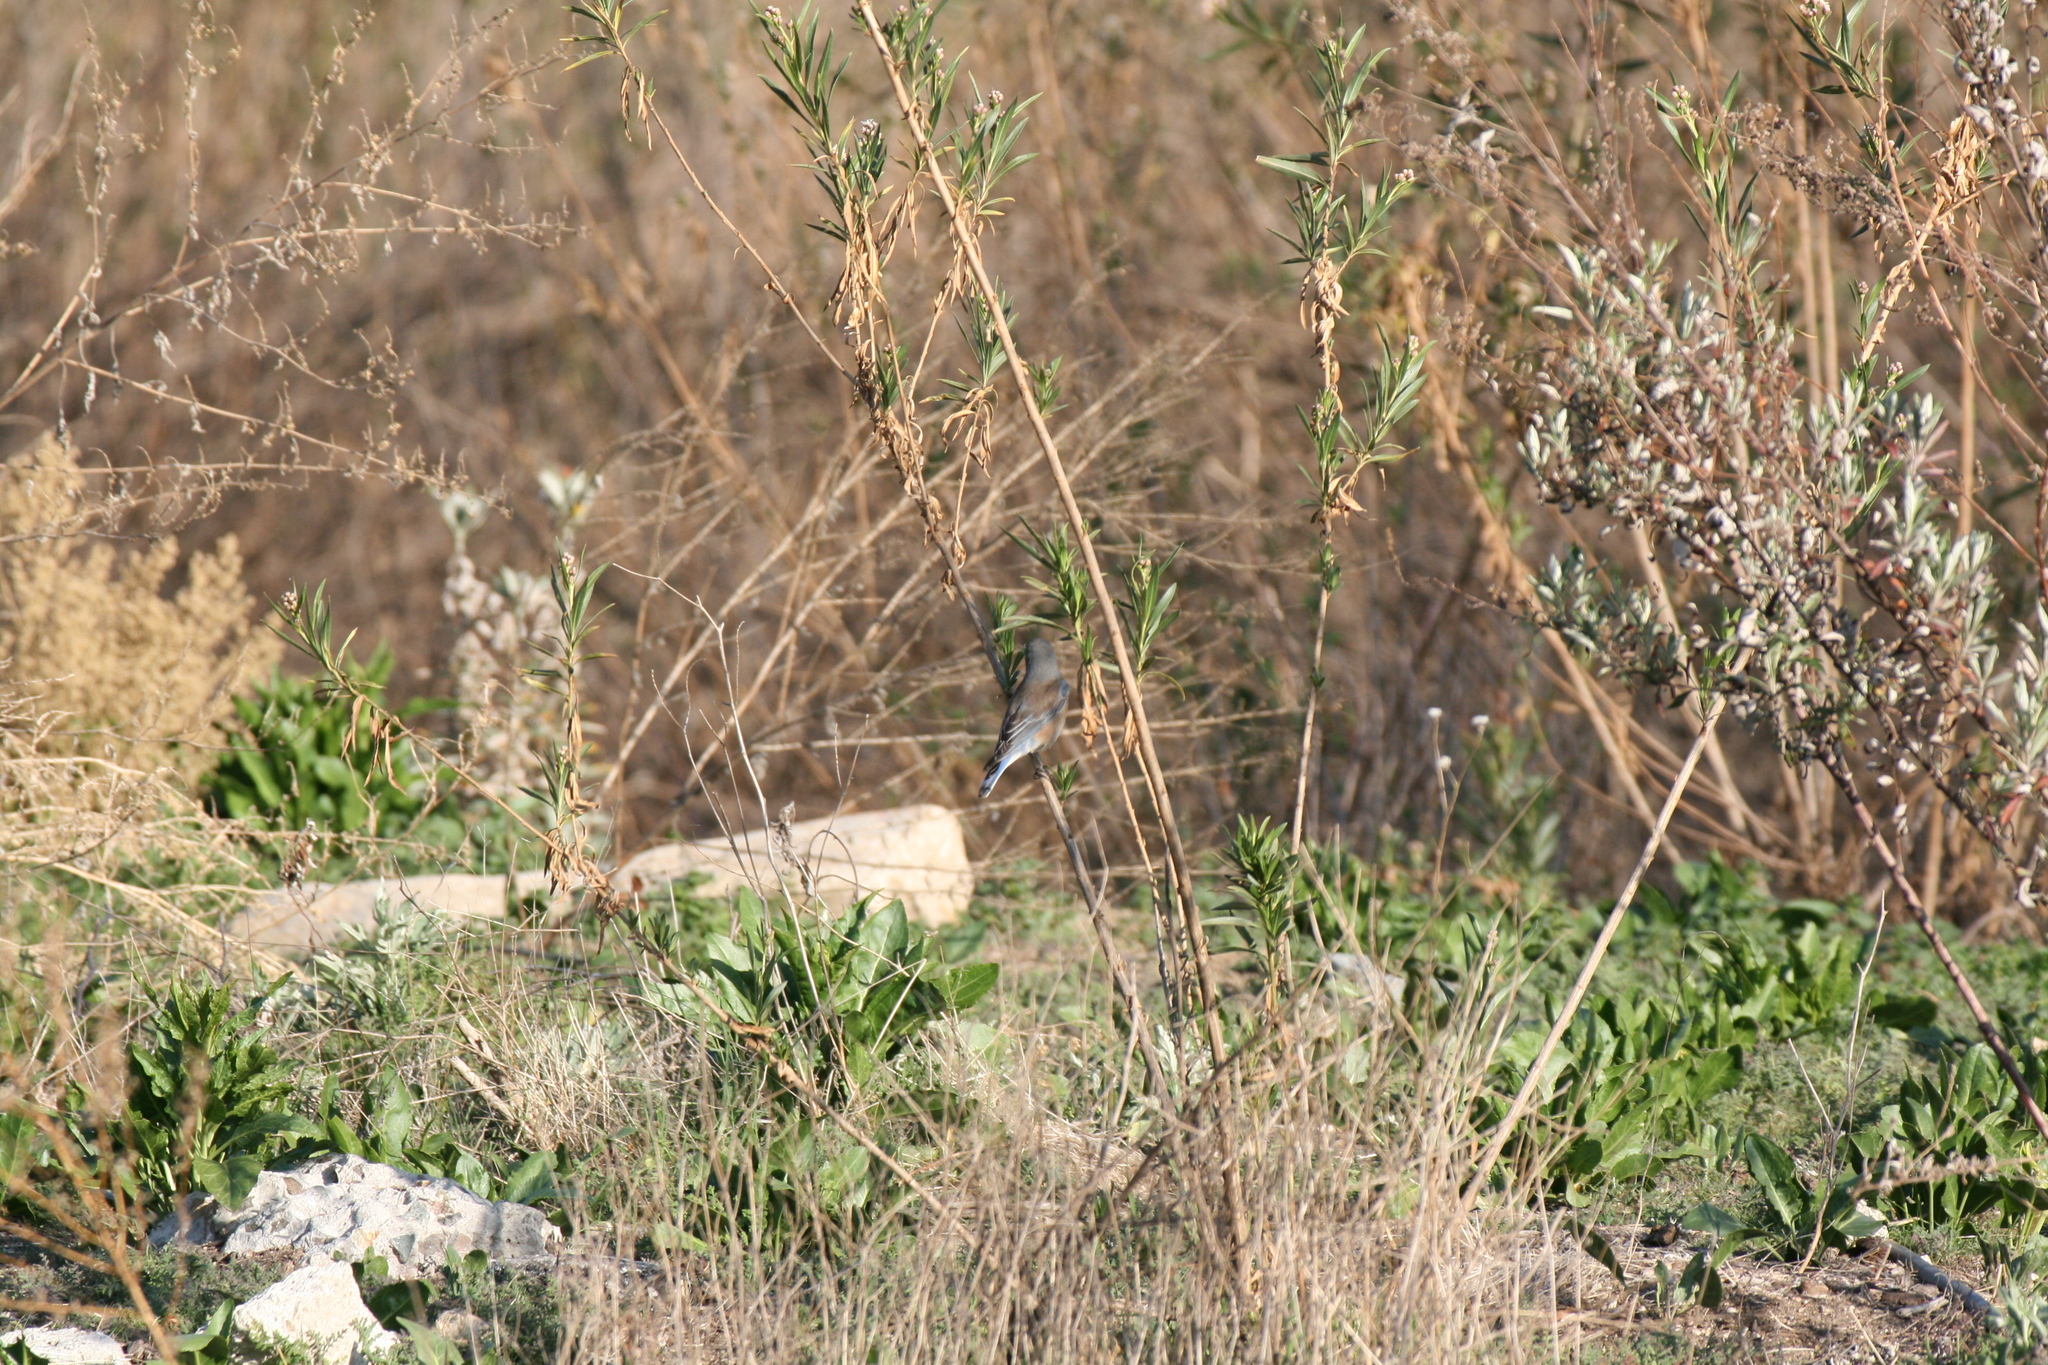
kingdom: Animalia
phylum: Chordata
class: Aves
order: Passeriformes
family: Turdidae
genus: Sialia
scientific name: Sialia mexicana
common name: Western bluebird
